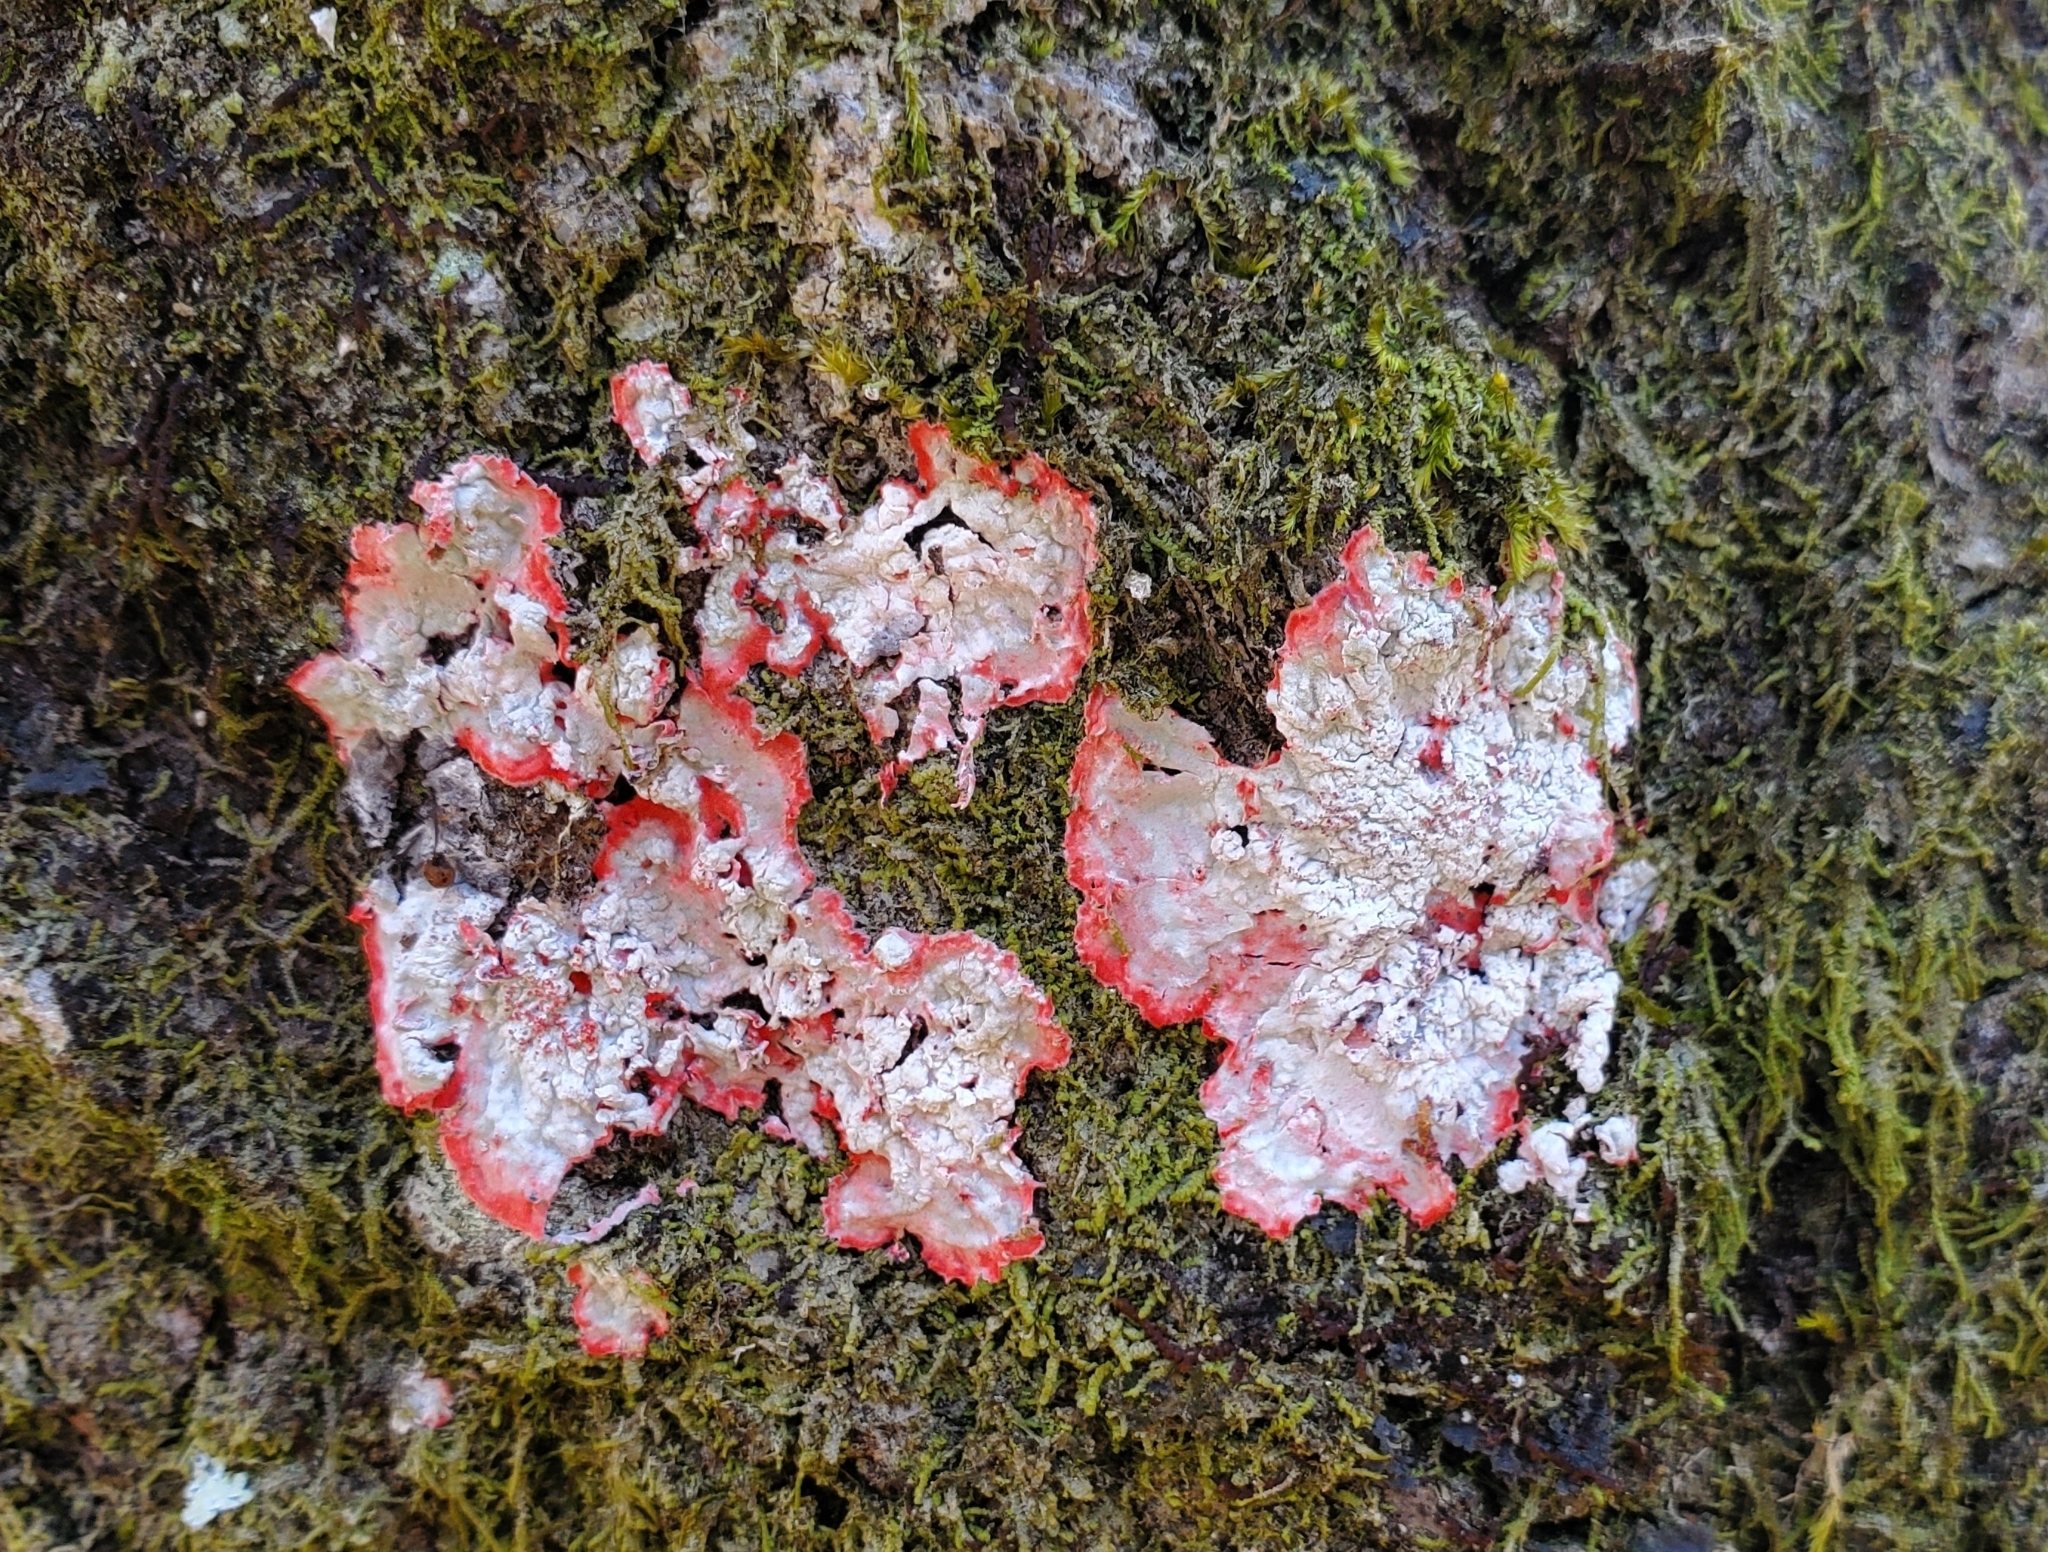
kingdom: Fungi
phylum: Ascomycota
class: Arthoniomycetes
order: Arthoniales
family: Arthoniaceae
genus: Herpothallon
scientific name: Herpothallon rubrocinctum
